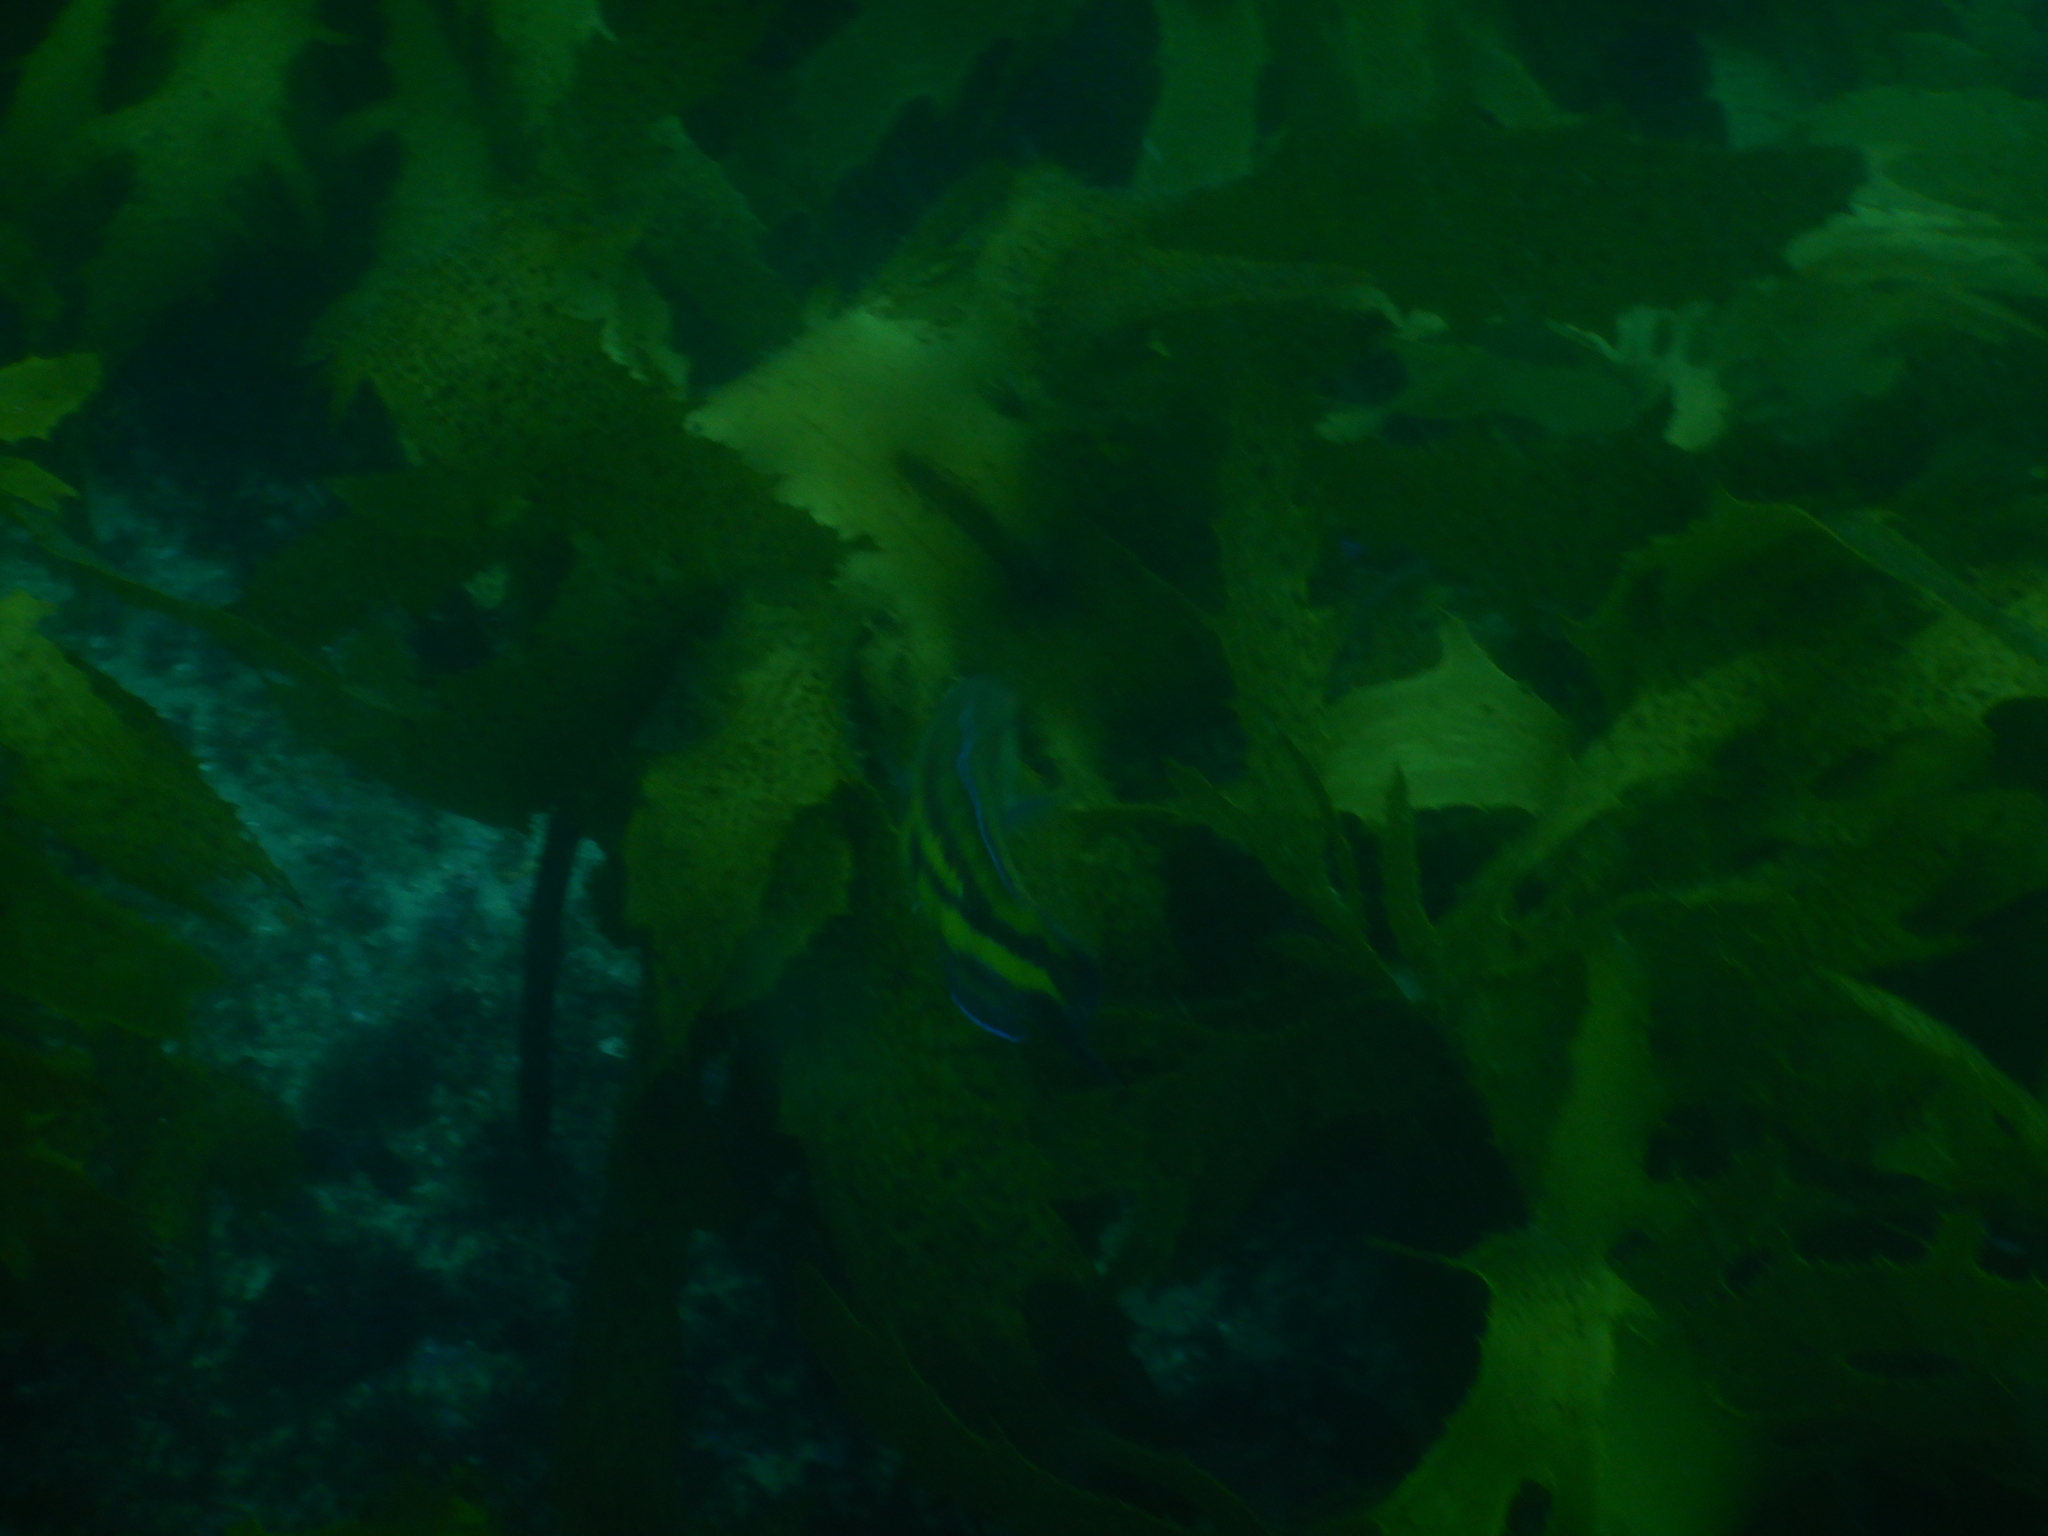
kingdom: Animalia
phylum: Chordata
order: Perciformes
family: Labridae
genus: Pictilabrus
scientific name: Pictilabrus laticlavius
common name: Patrician wrasse
